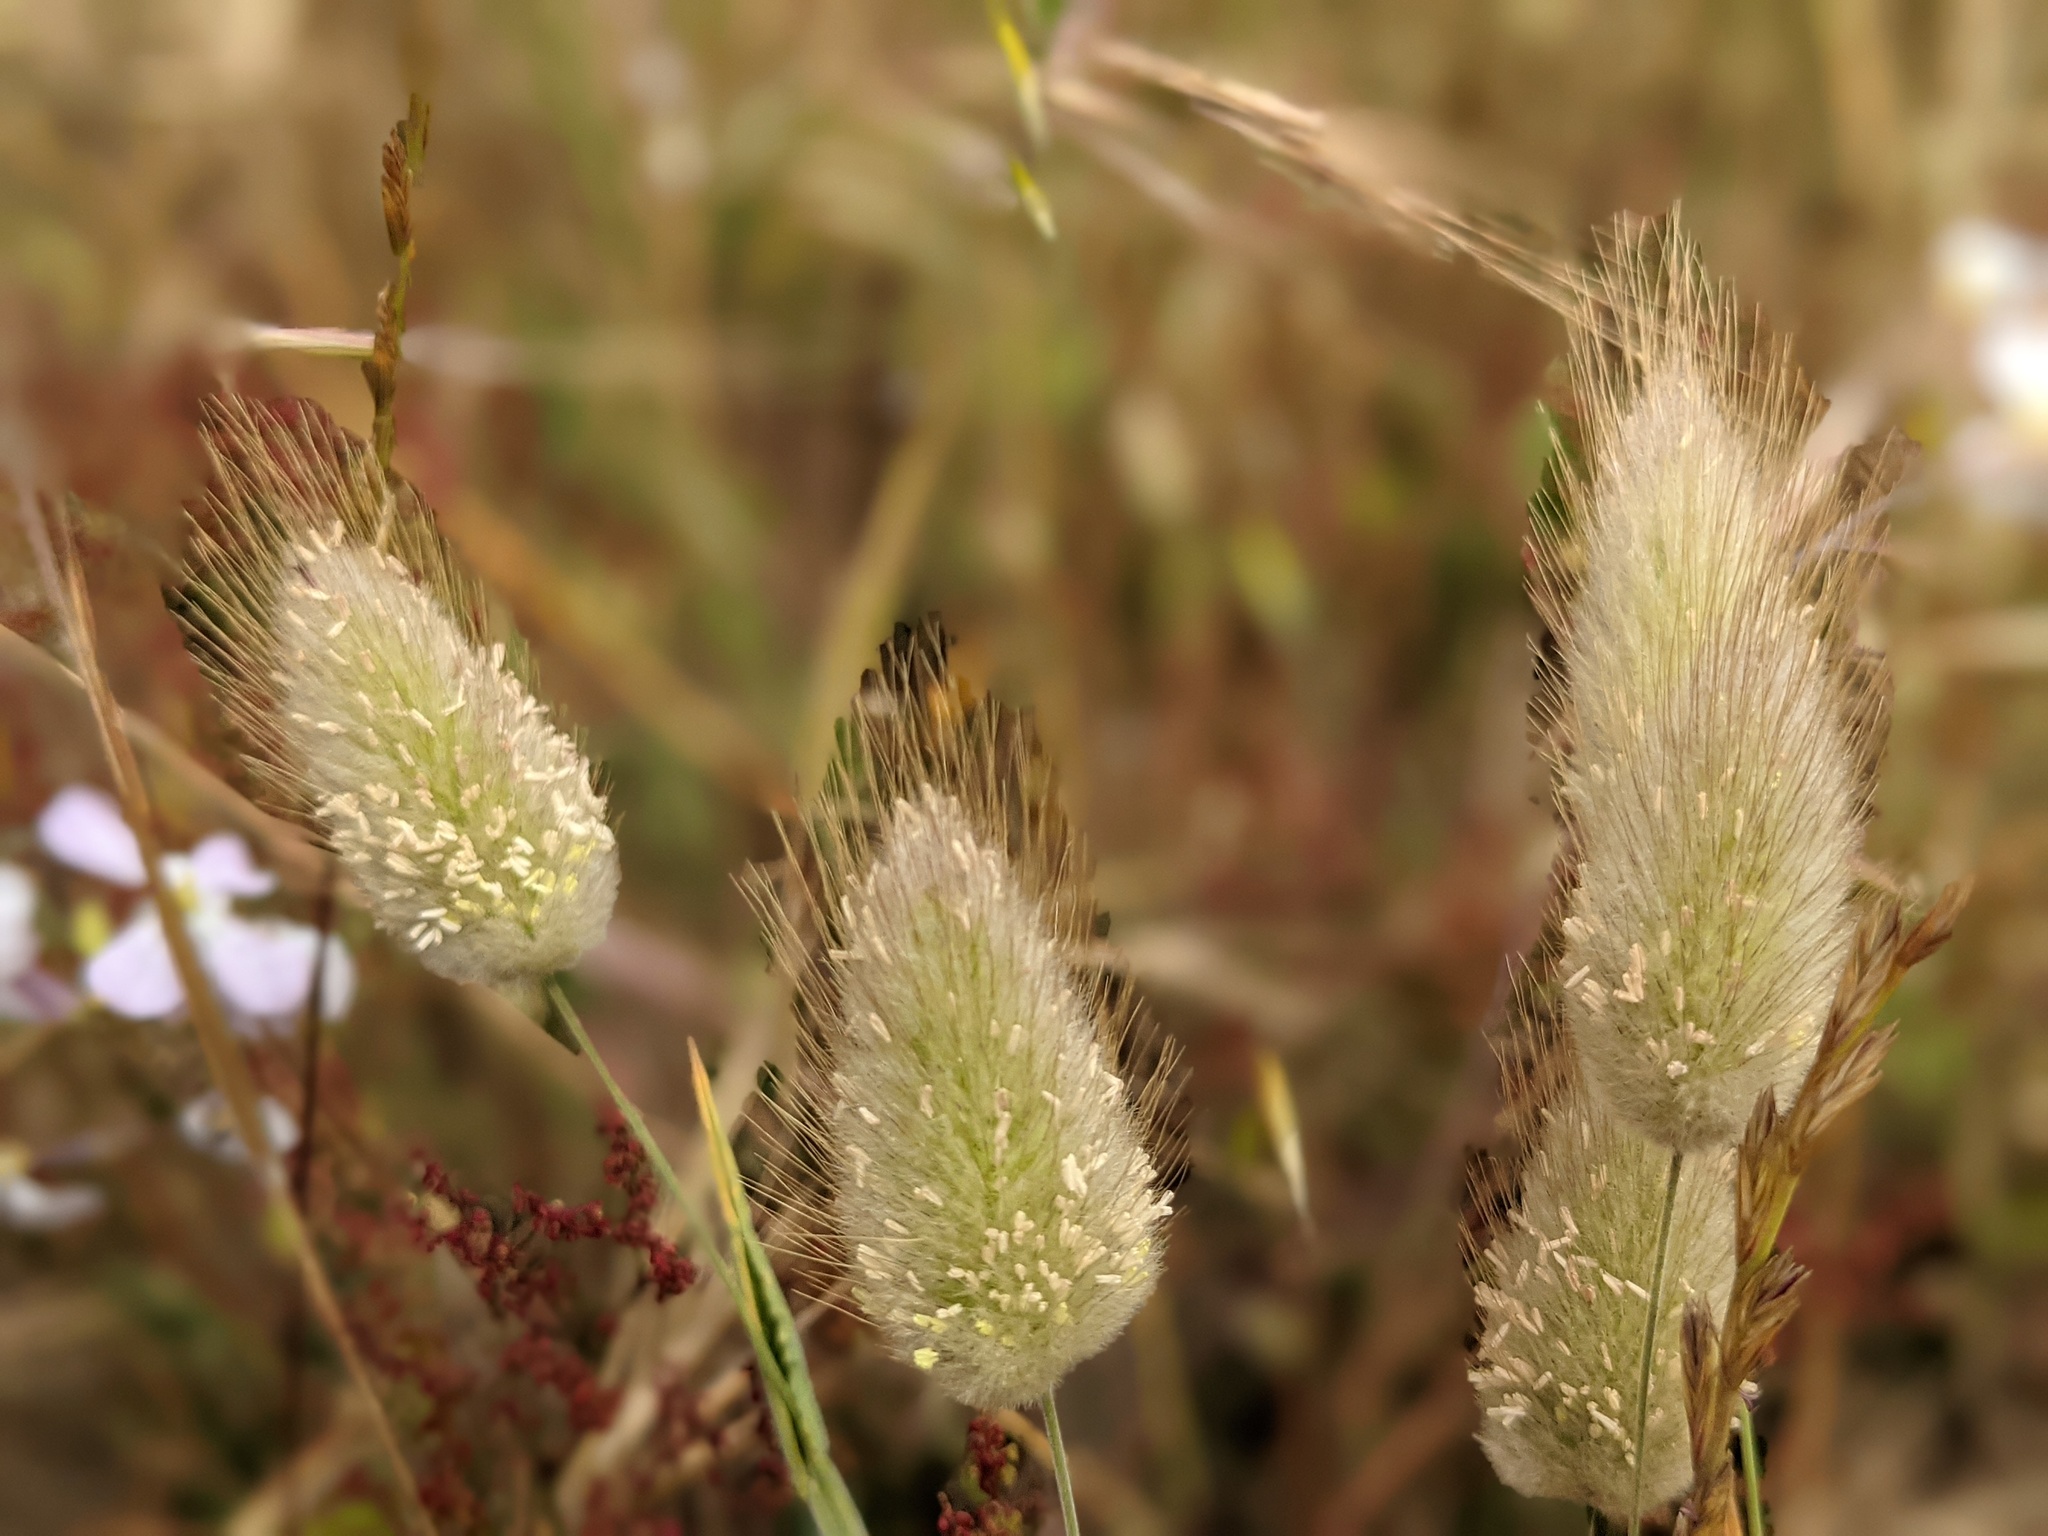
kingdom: Plantae
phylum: Tracheophyta
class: Liliopsida
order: Poales
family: Poaceae
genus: Lagurus
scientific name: Lagurus ovatus
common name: Hare's-tail
